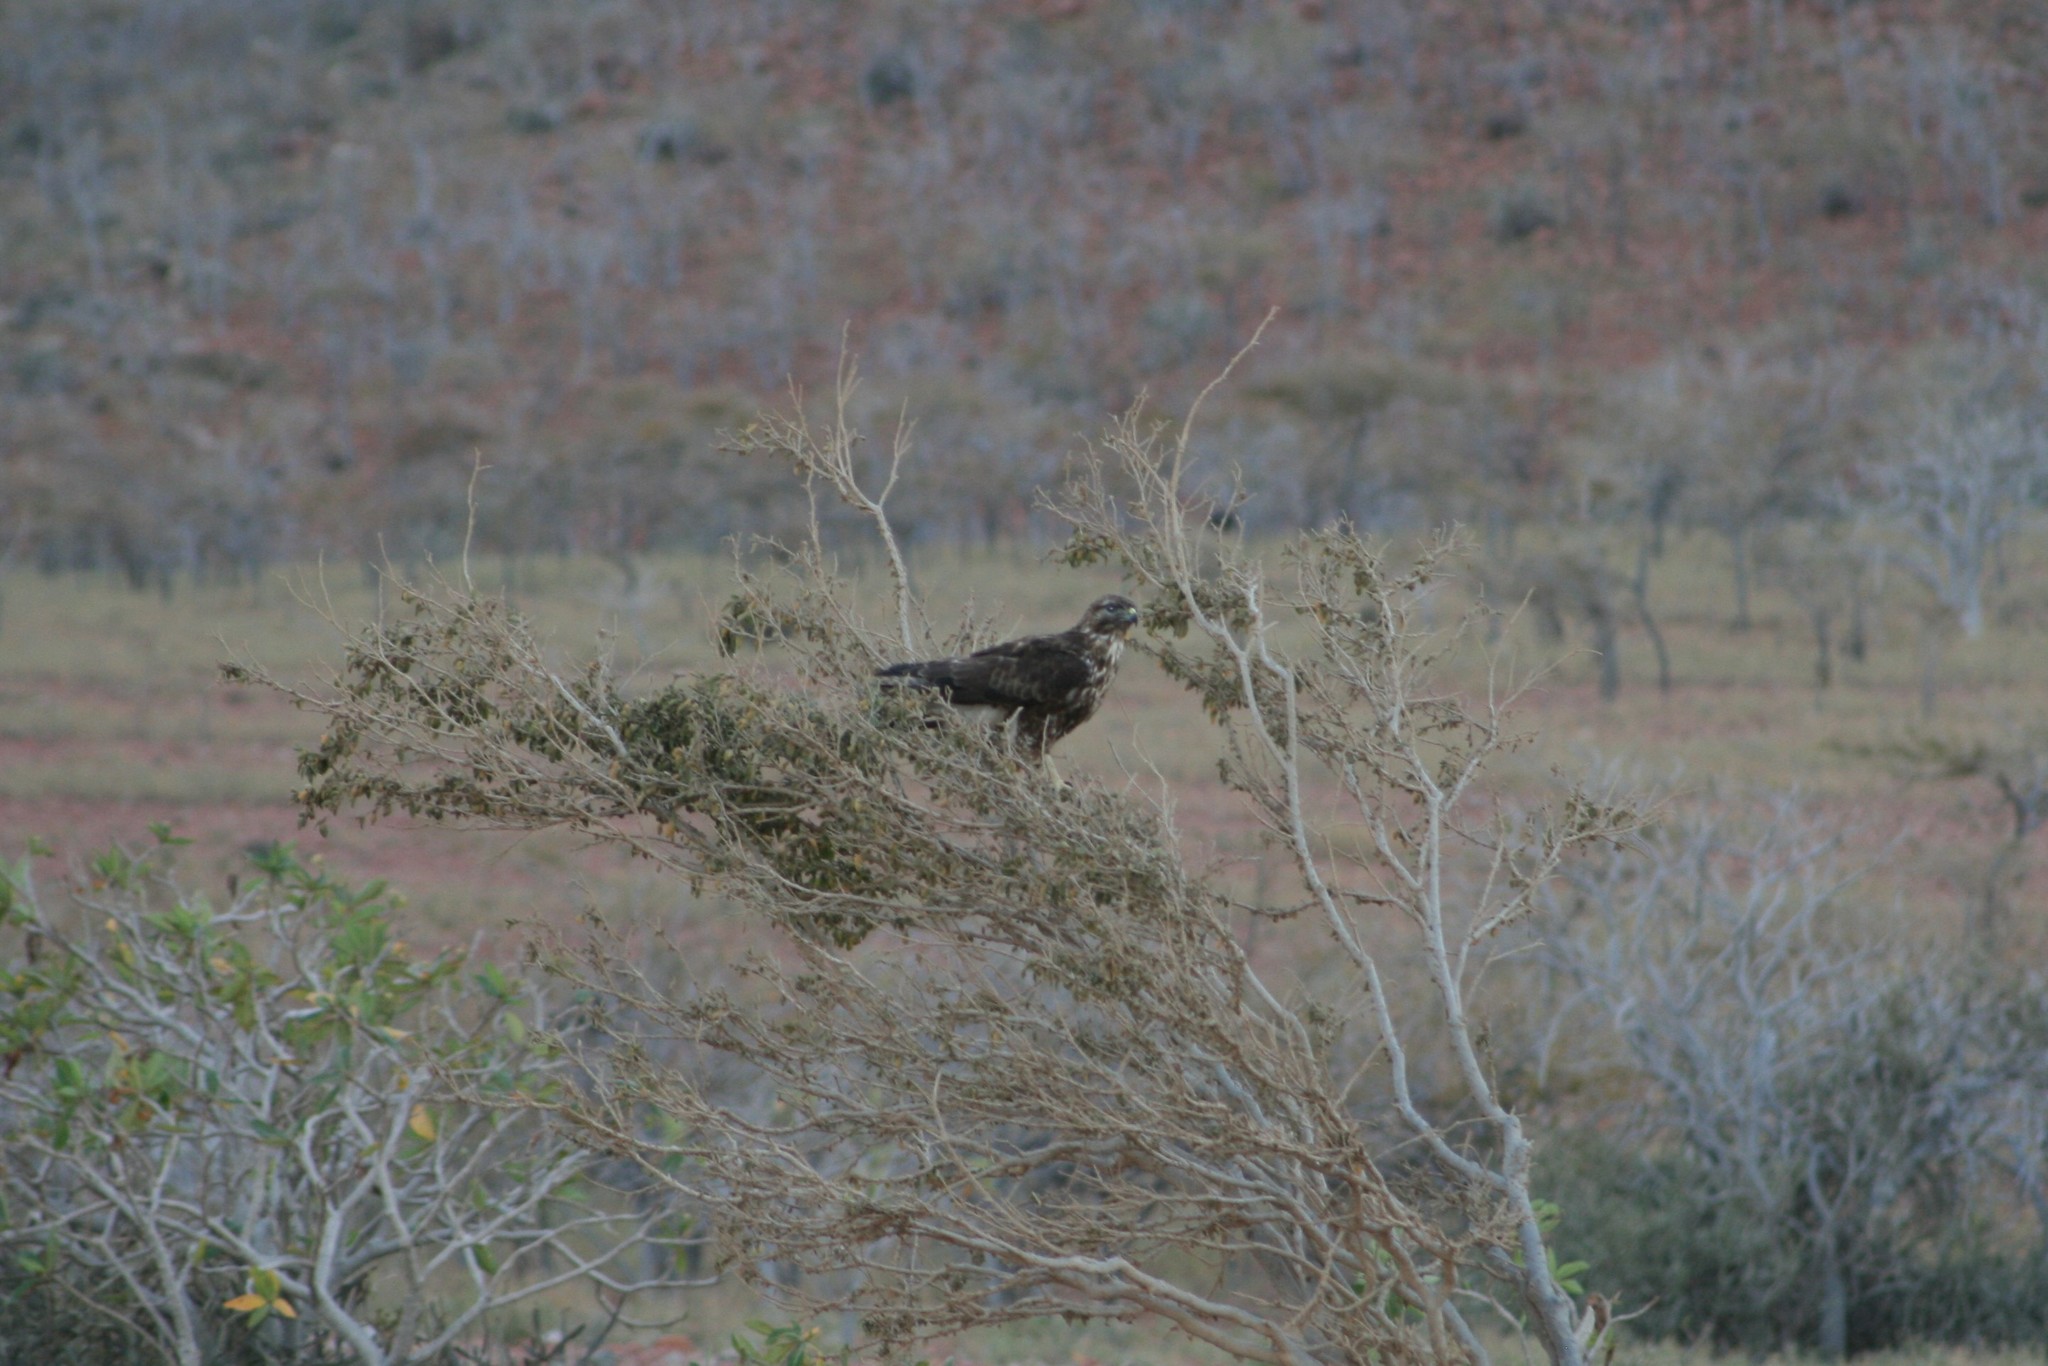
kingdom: Animalia
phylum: Chordata
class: Aves
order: Accipitriformes
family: Accipitridae
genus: Buteo
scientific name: Buteo socotraensis
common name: Socotra buzzard
